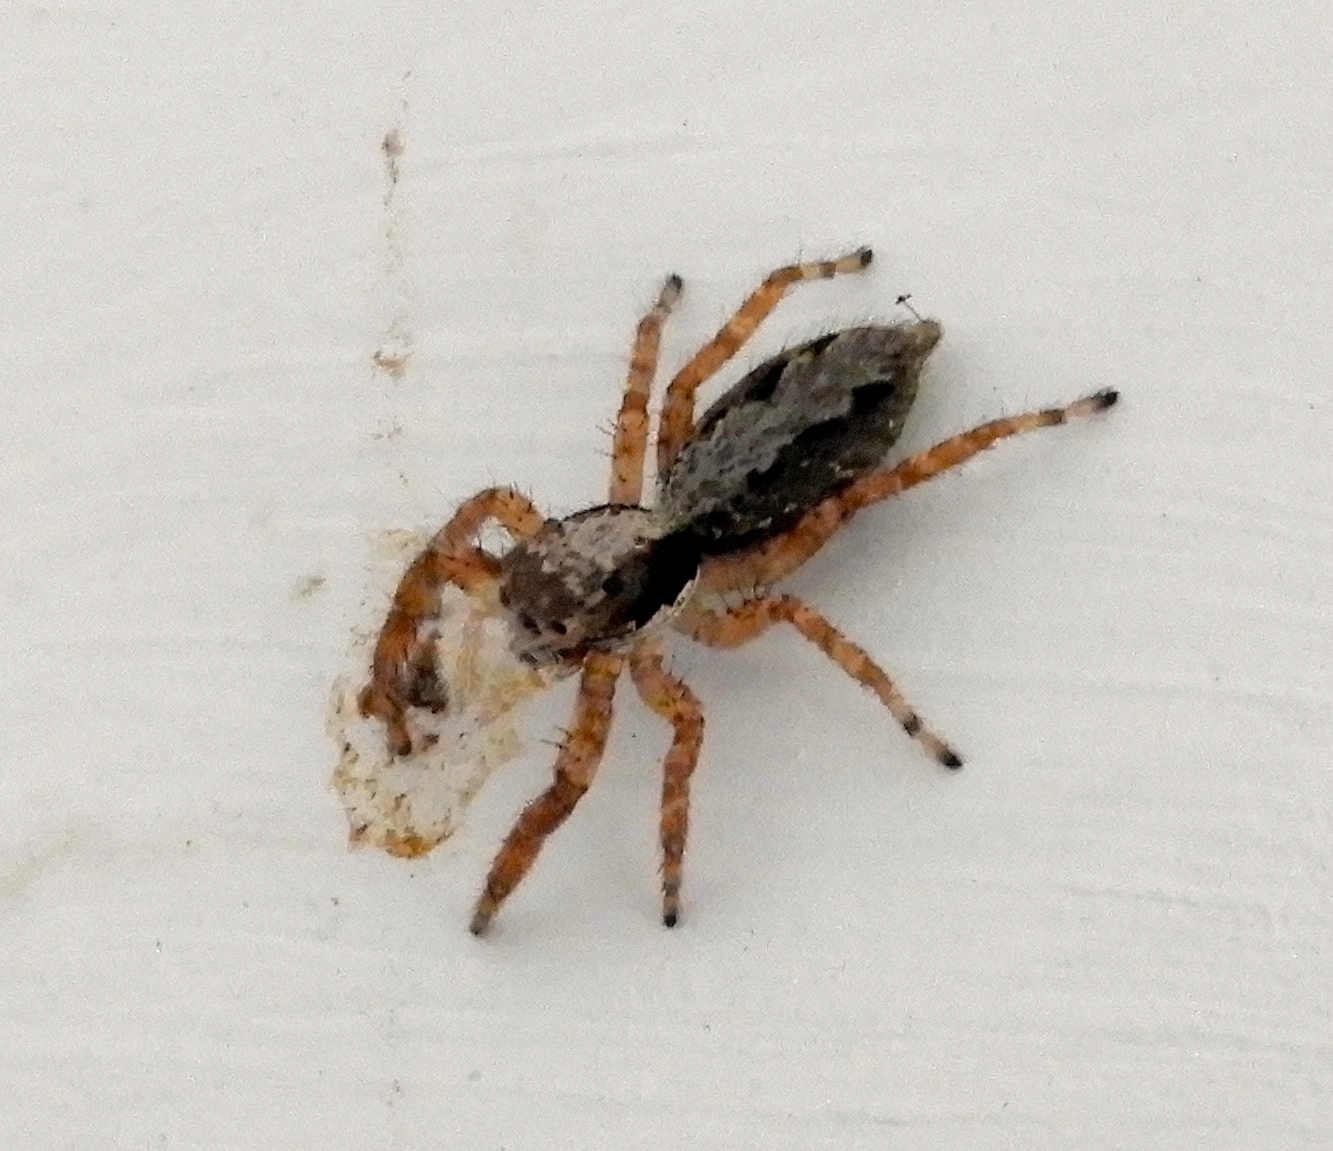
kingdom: Animalia
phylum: Arthropoda
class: Arachnida
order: Araneae
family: Salticidae
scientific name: Salticidae
